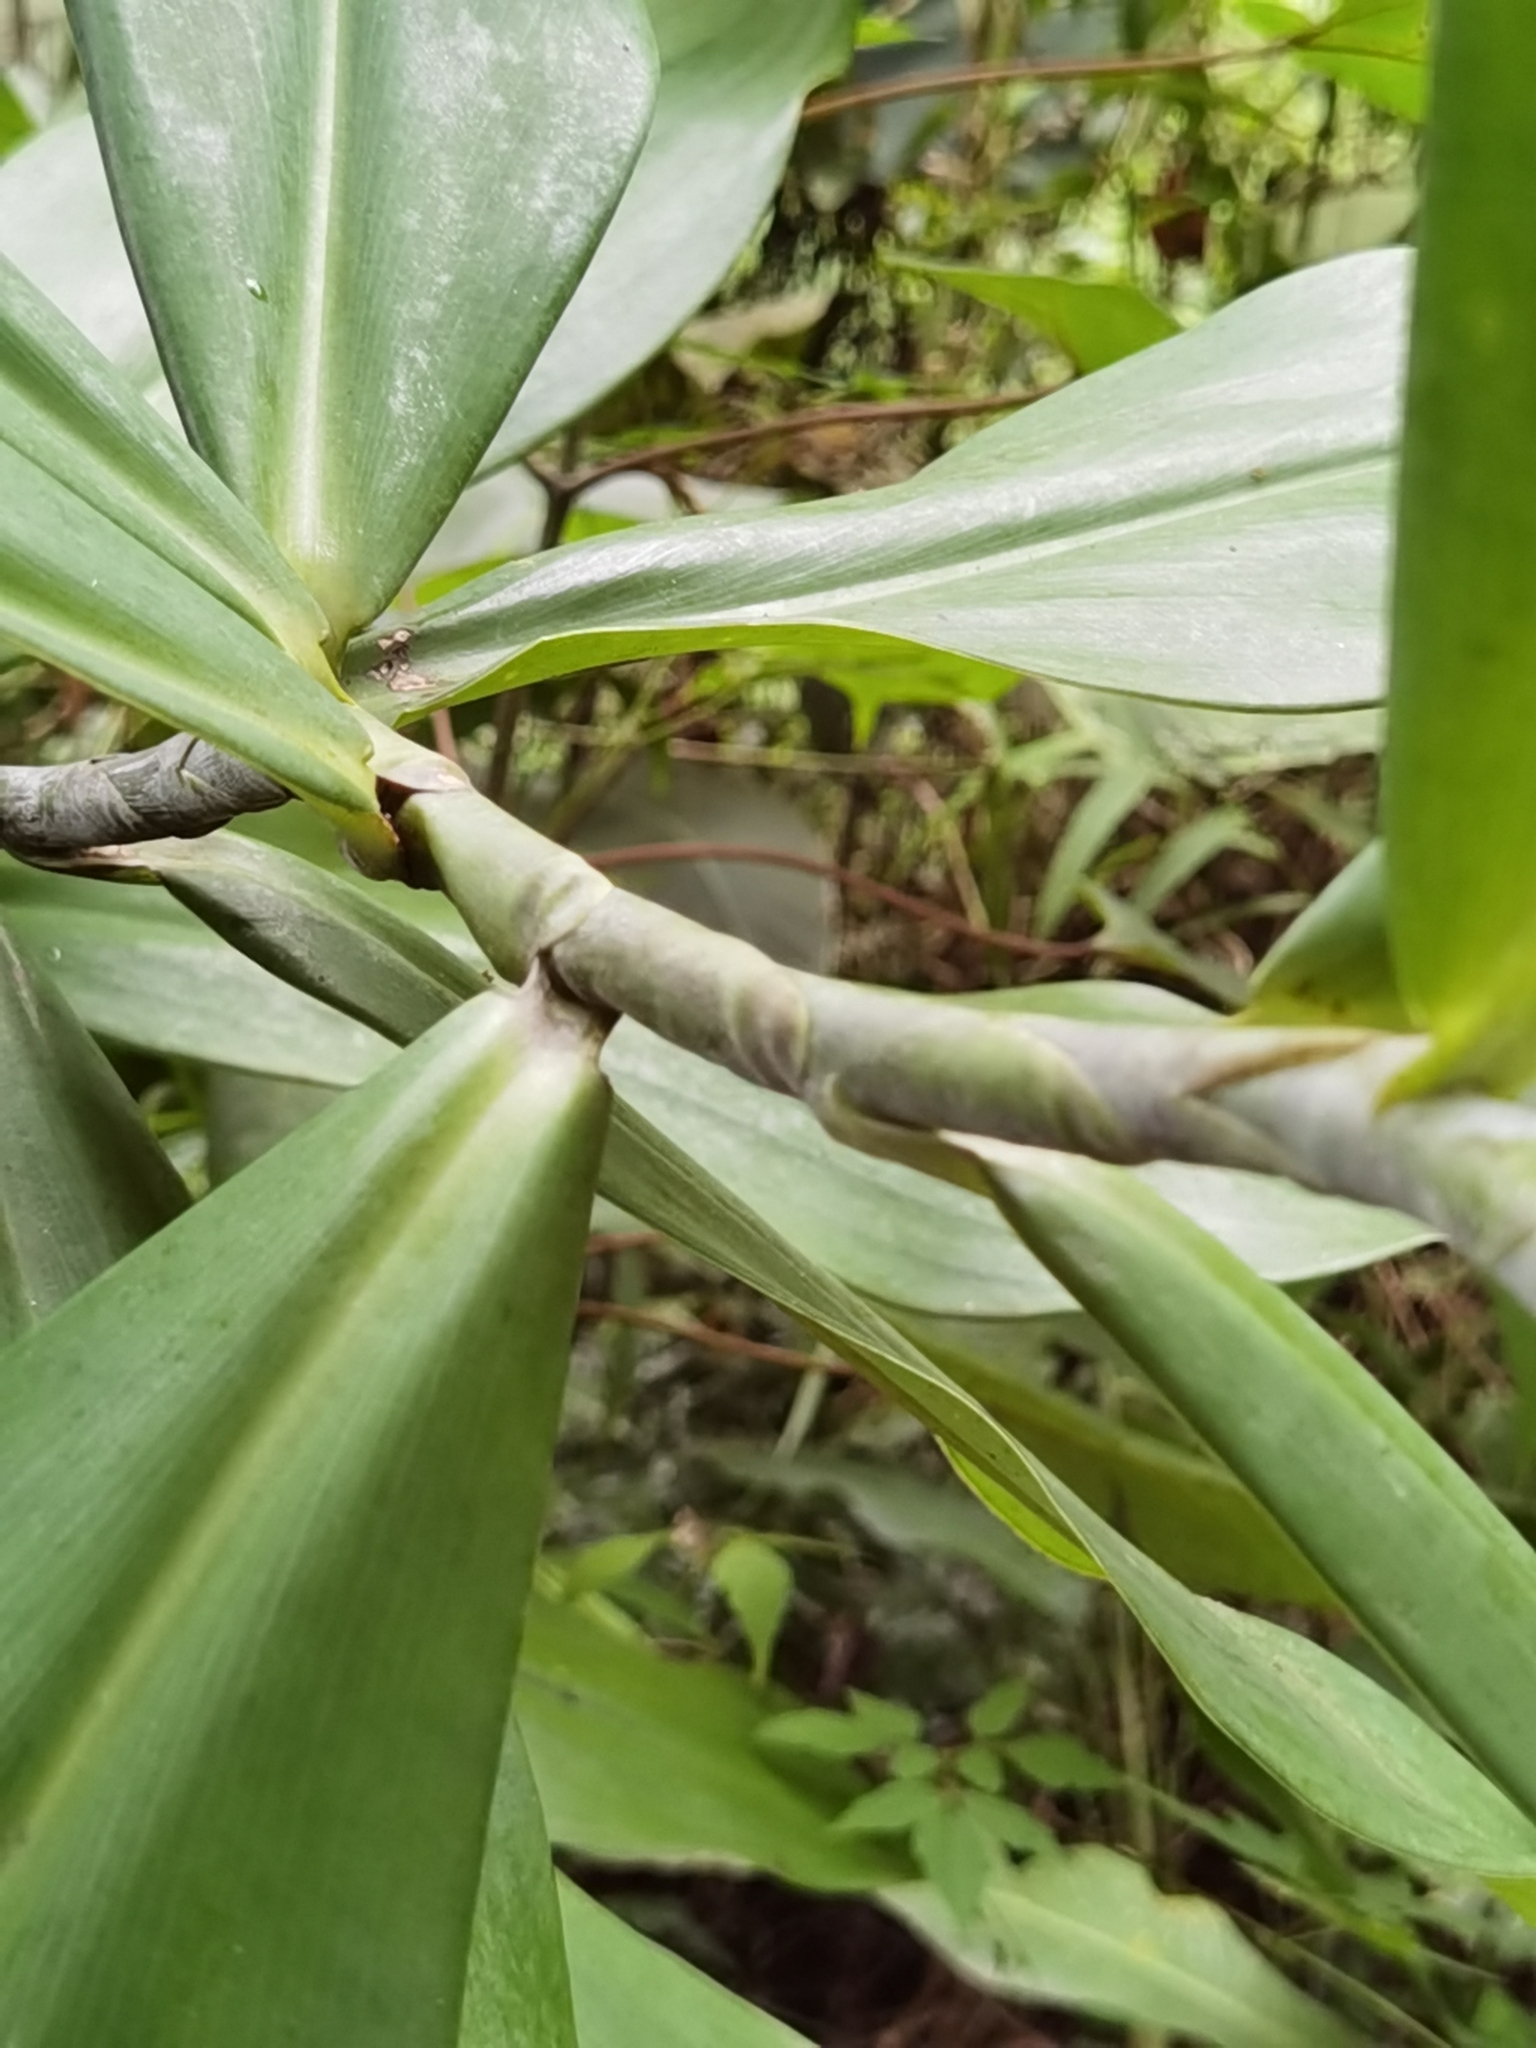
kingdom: Plantae
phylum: Tracheophyta
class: Liliopsida
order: Zingiberales
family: Costaceae
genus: Costus
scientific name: Costus glaucus
